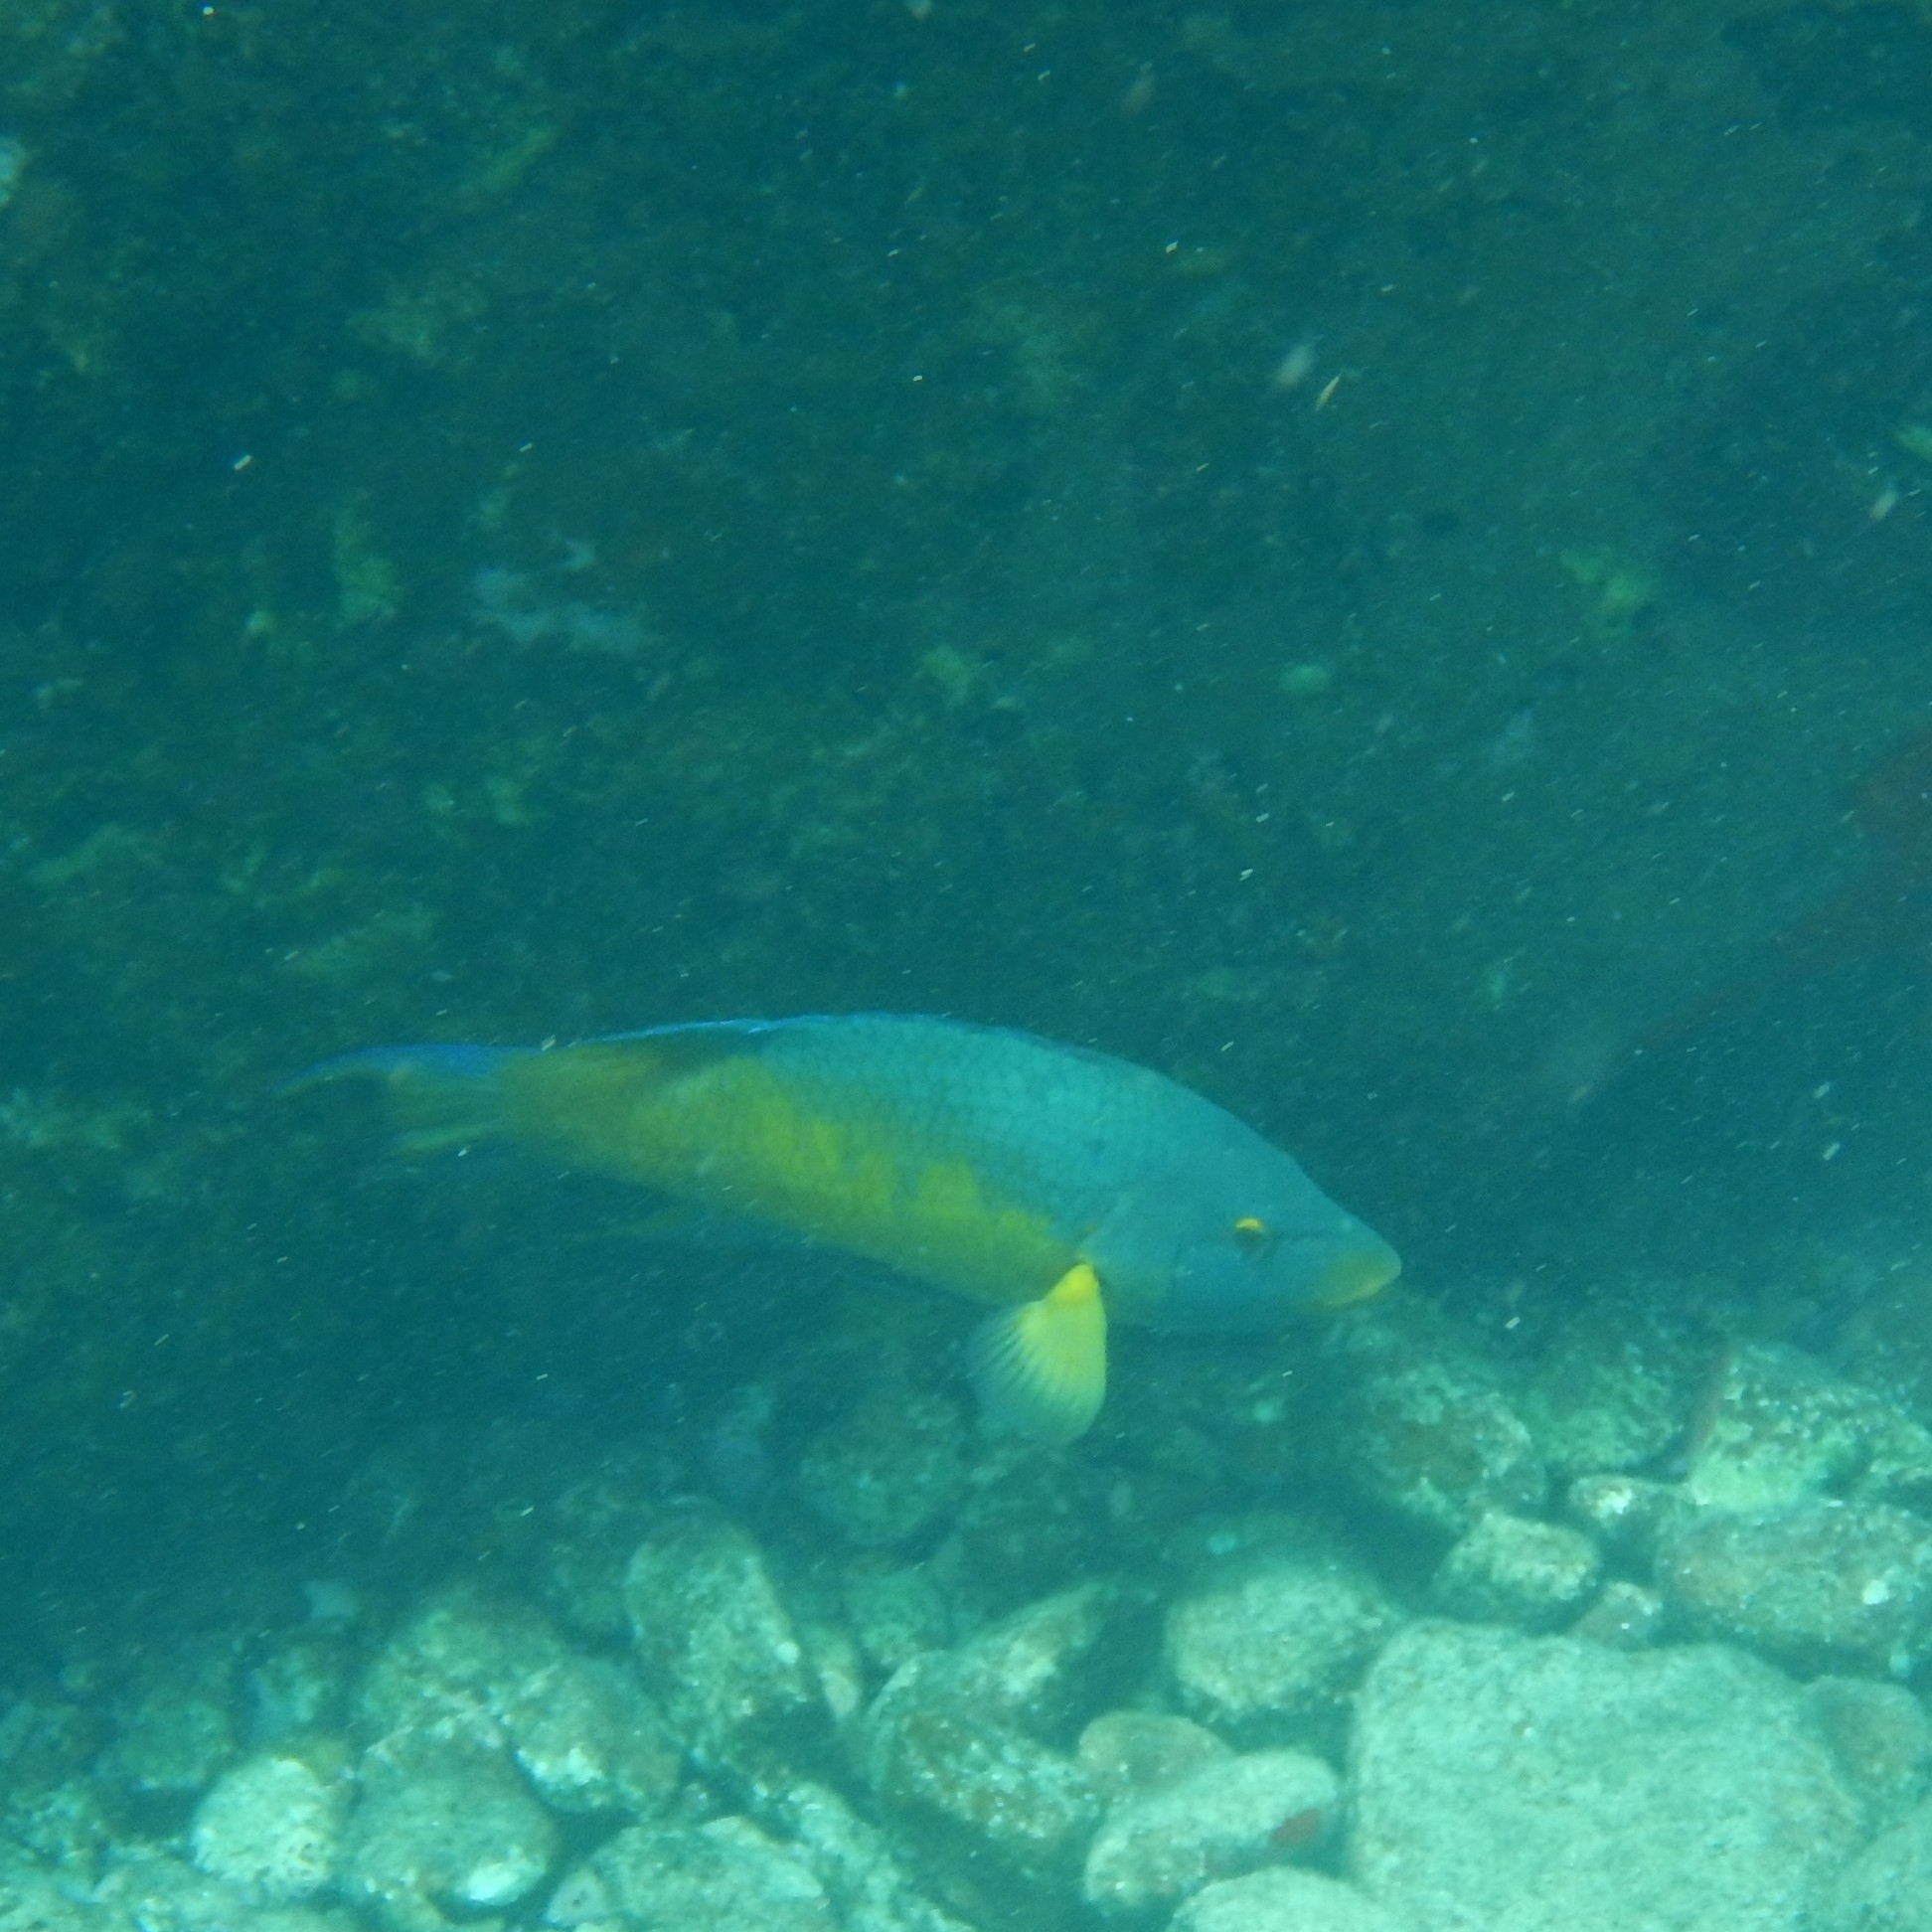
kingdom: Animalia
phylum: Chordata
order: Perciformes
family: Labridae
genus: Bodianus
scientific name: Bodianus rufus
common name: Spanish hogfish
